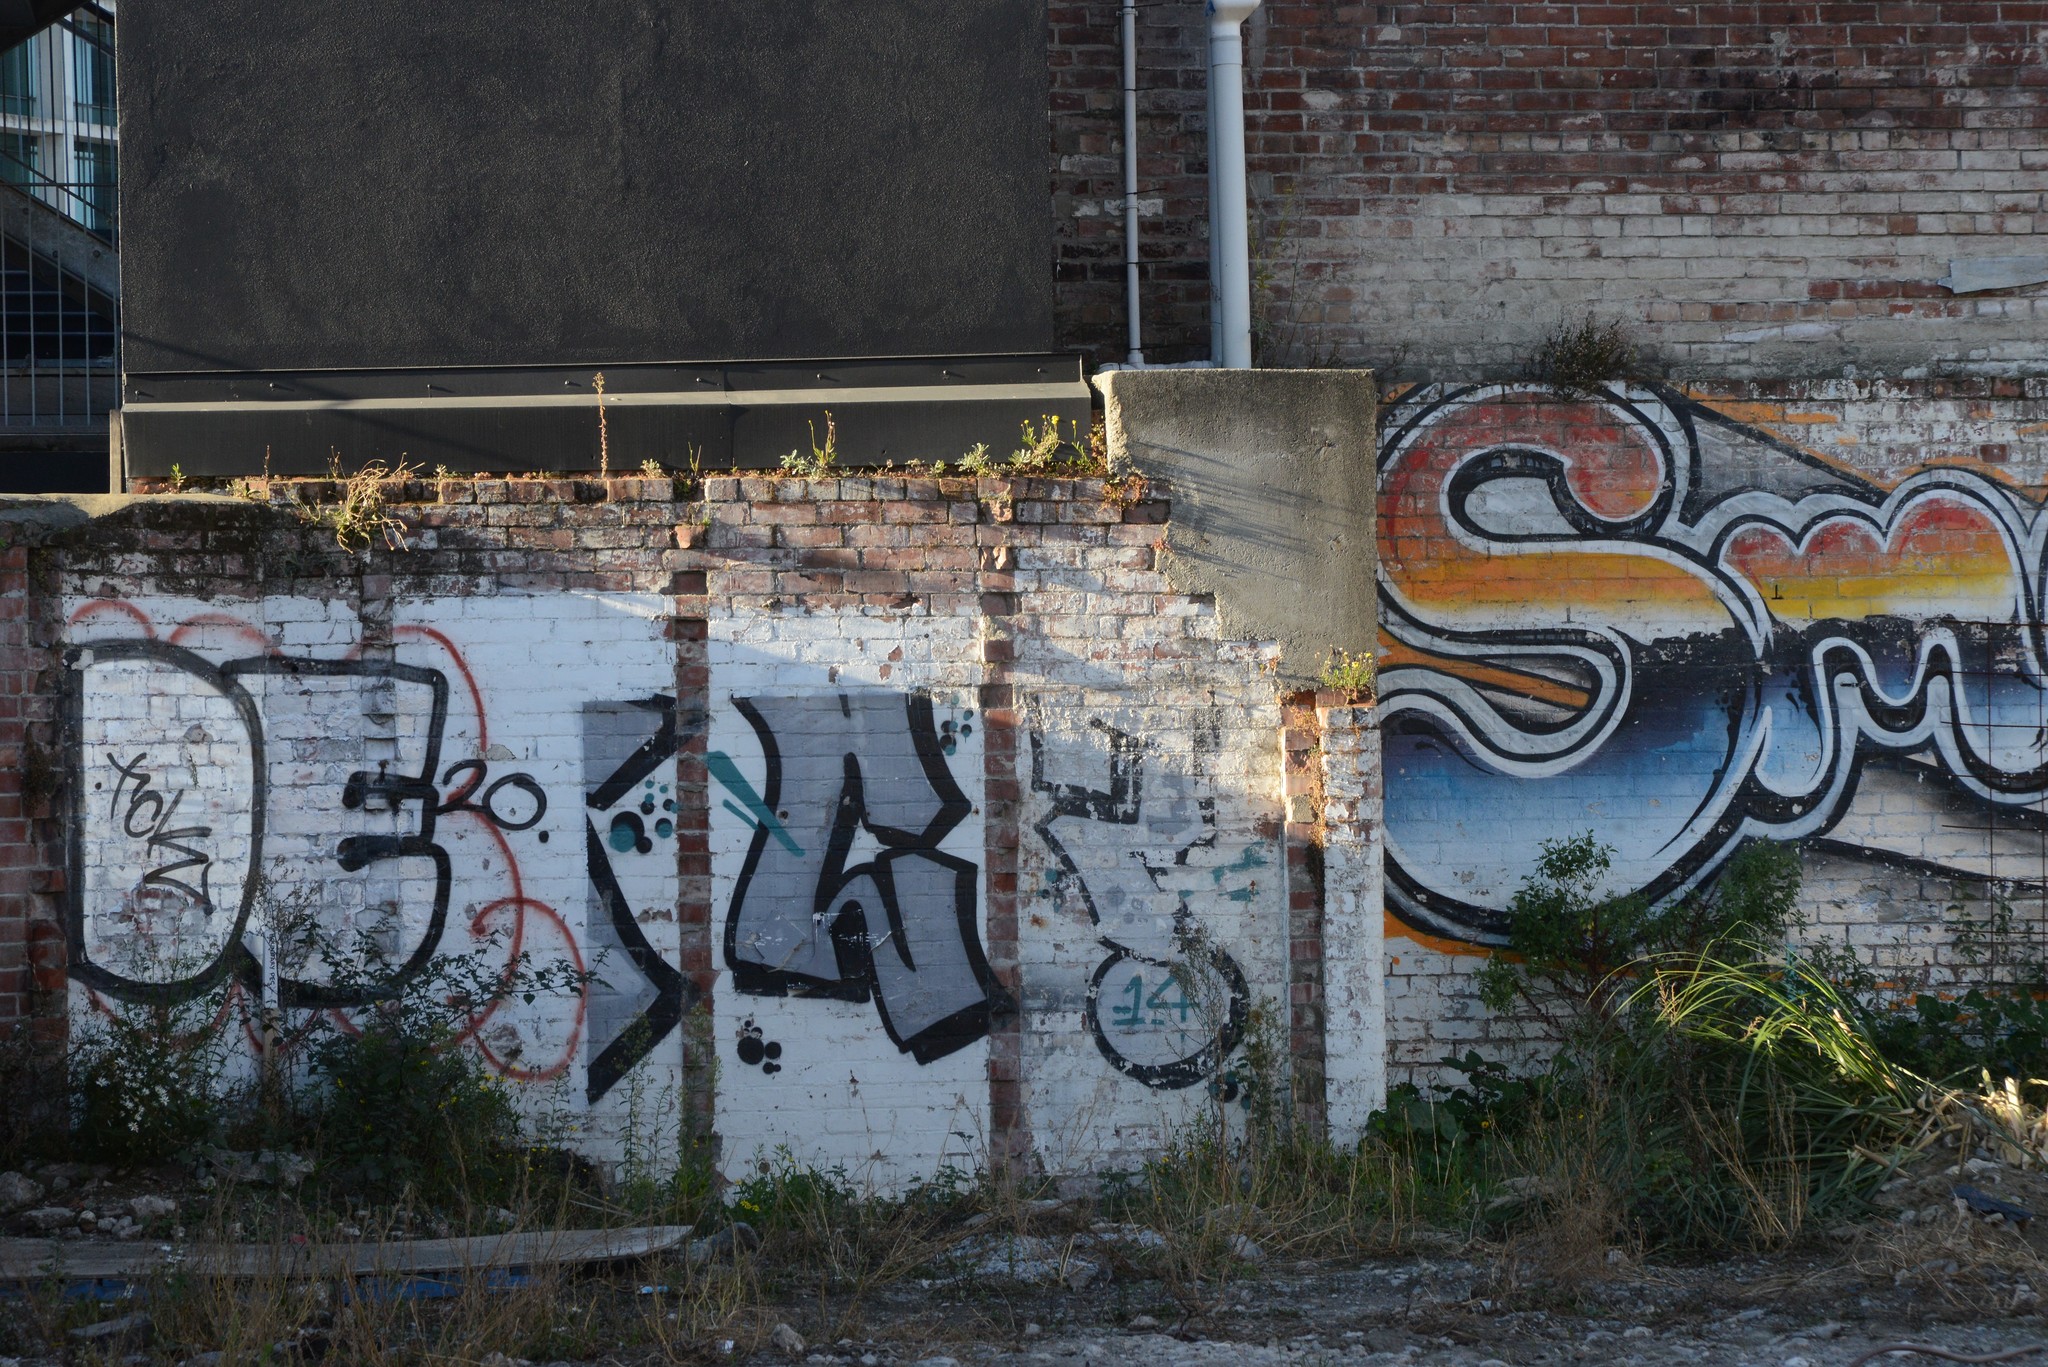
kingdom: Plantae
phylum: Tracheophyta
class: Magnoliopsida
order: Asterales
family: Asteraceae
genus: Senecio
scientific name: Senecio skirrhodon
